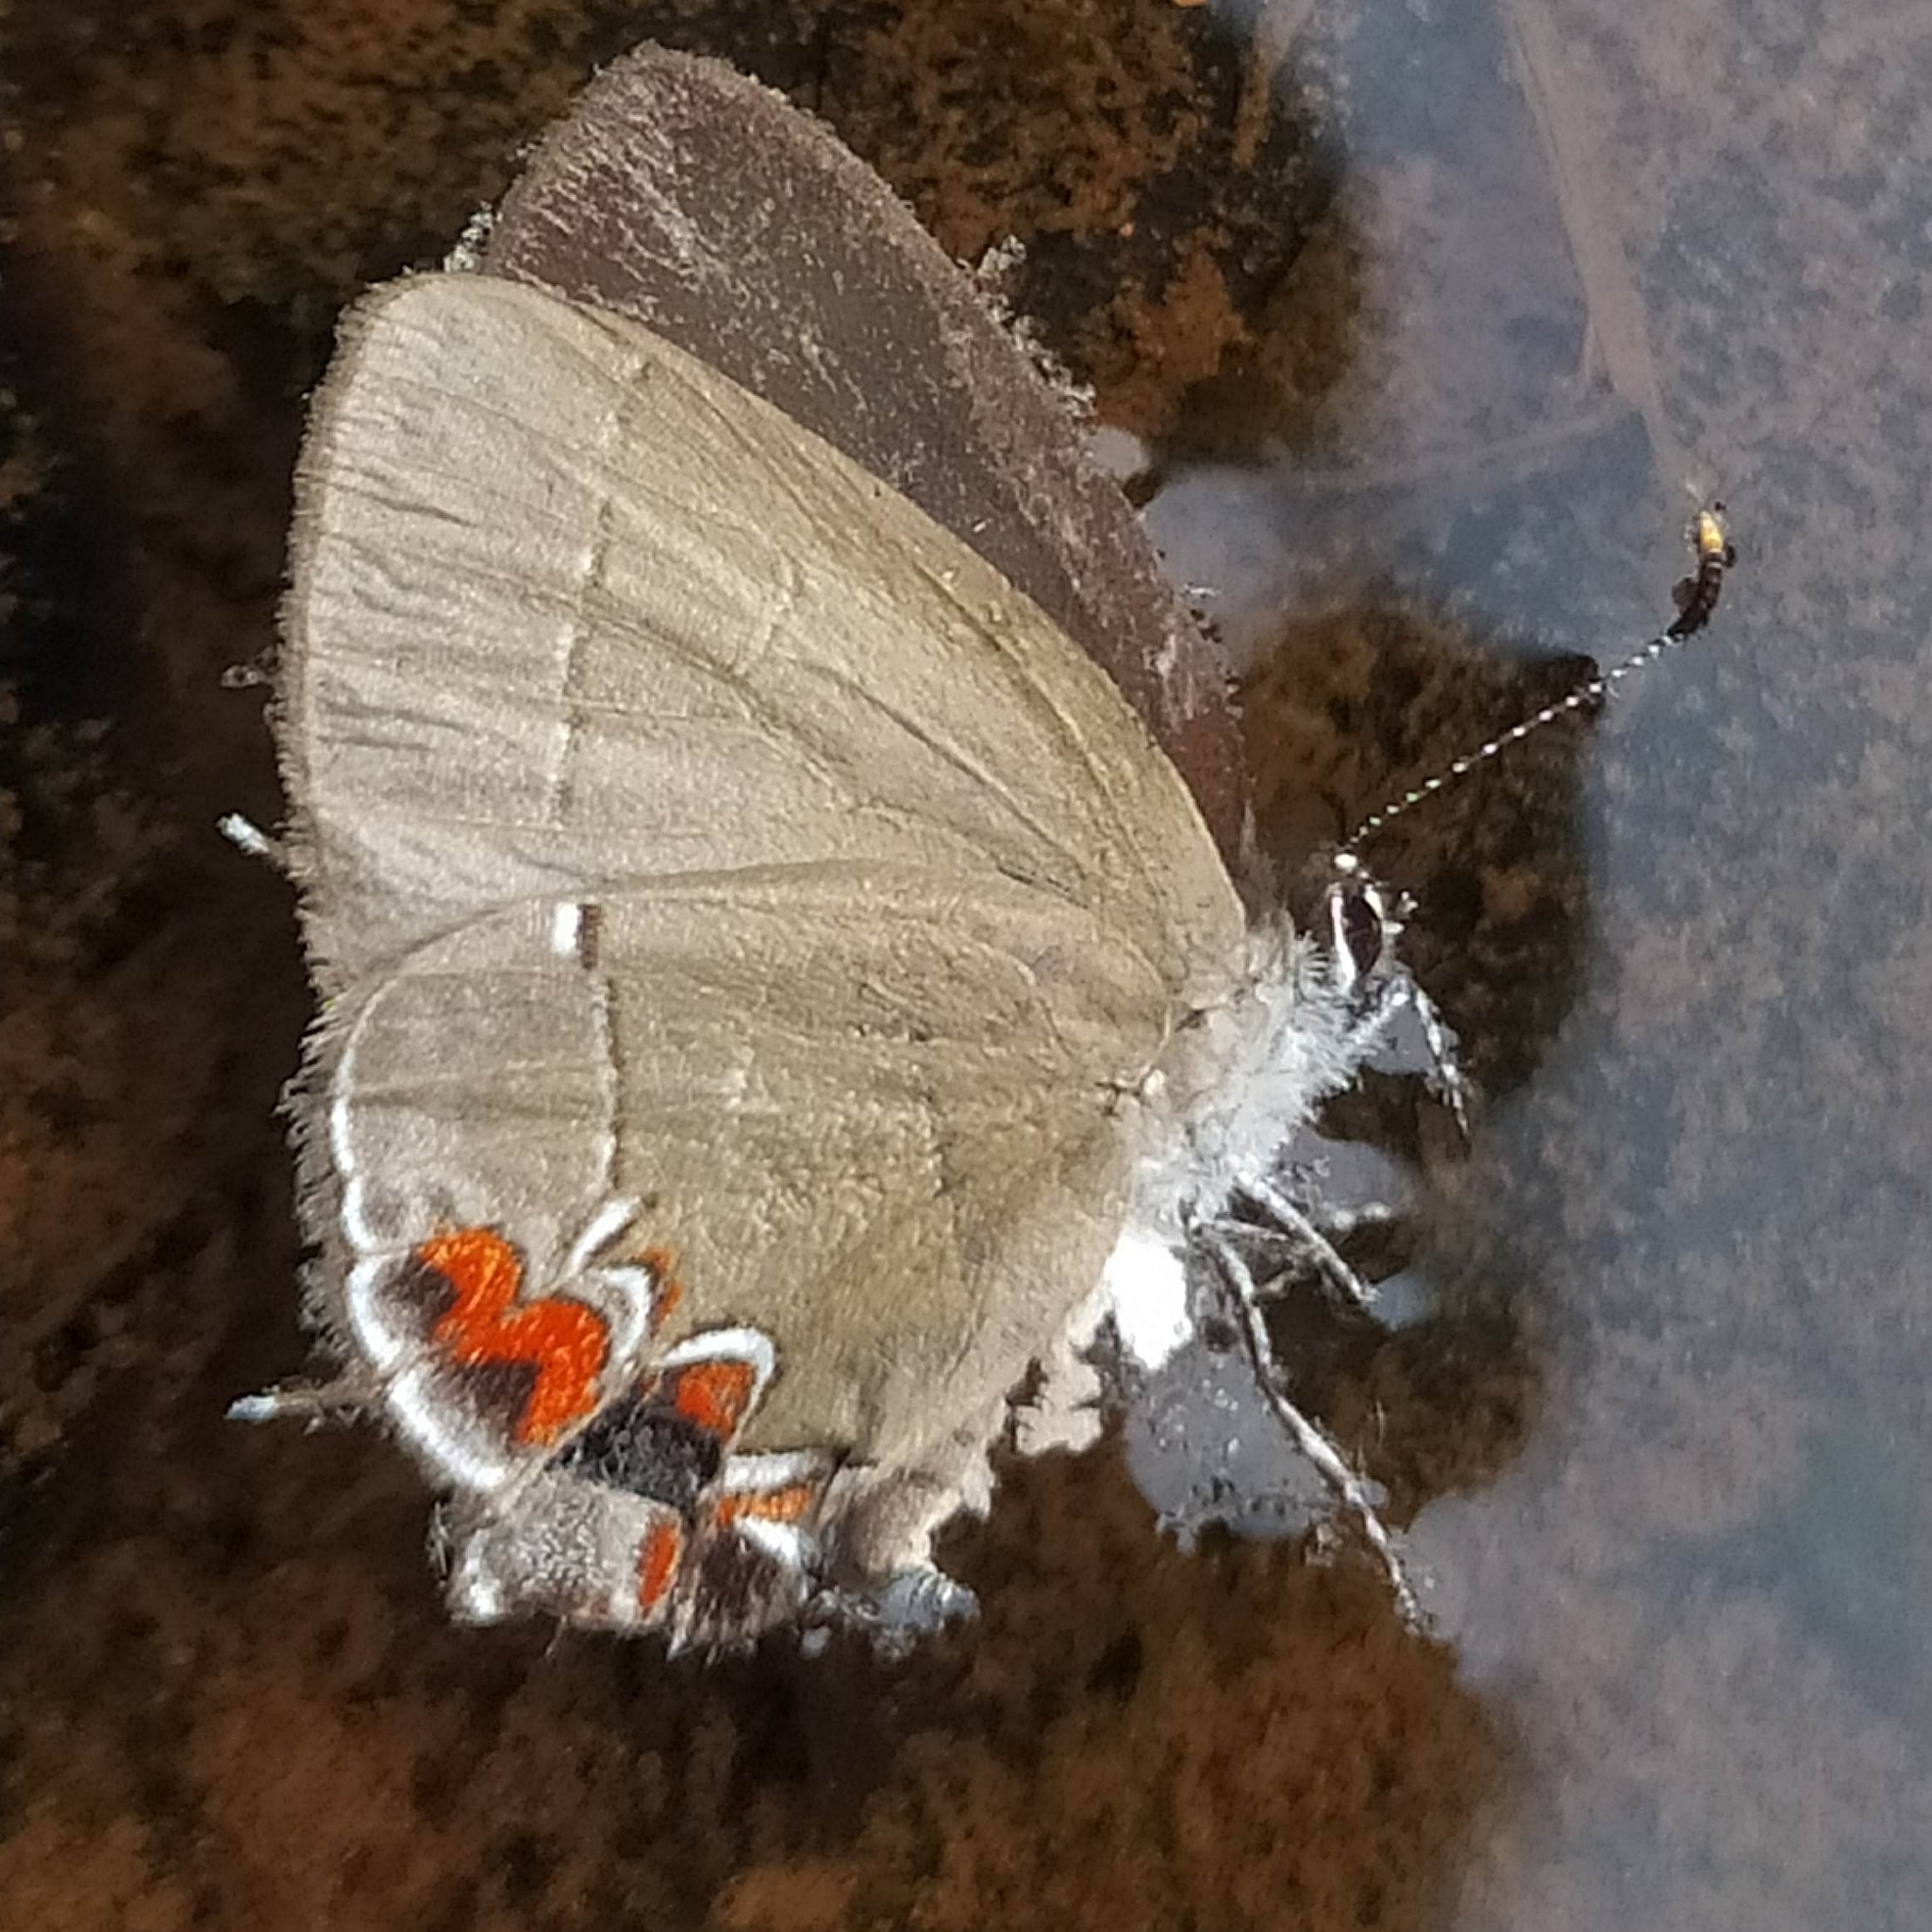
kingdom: Animalia
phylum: Arthropoda
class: Insecta
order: Lepidoptera
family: Lycaenidae
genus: Calycopis
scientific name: Calycopis
